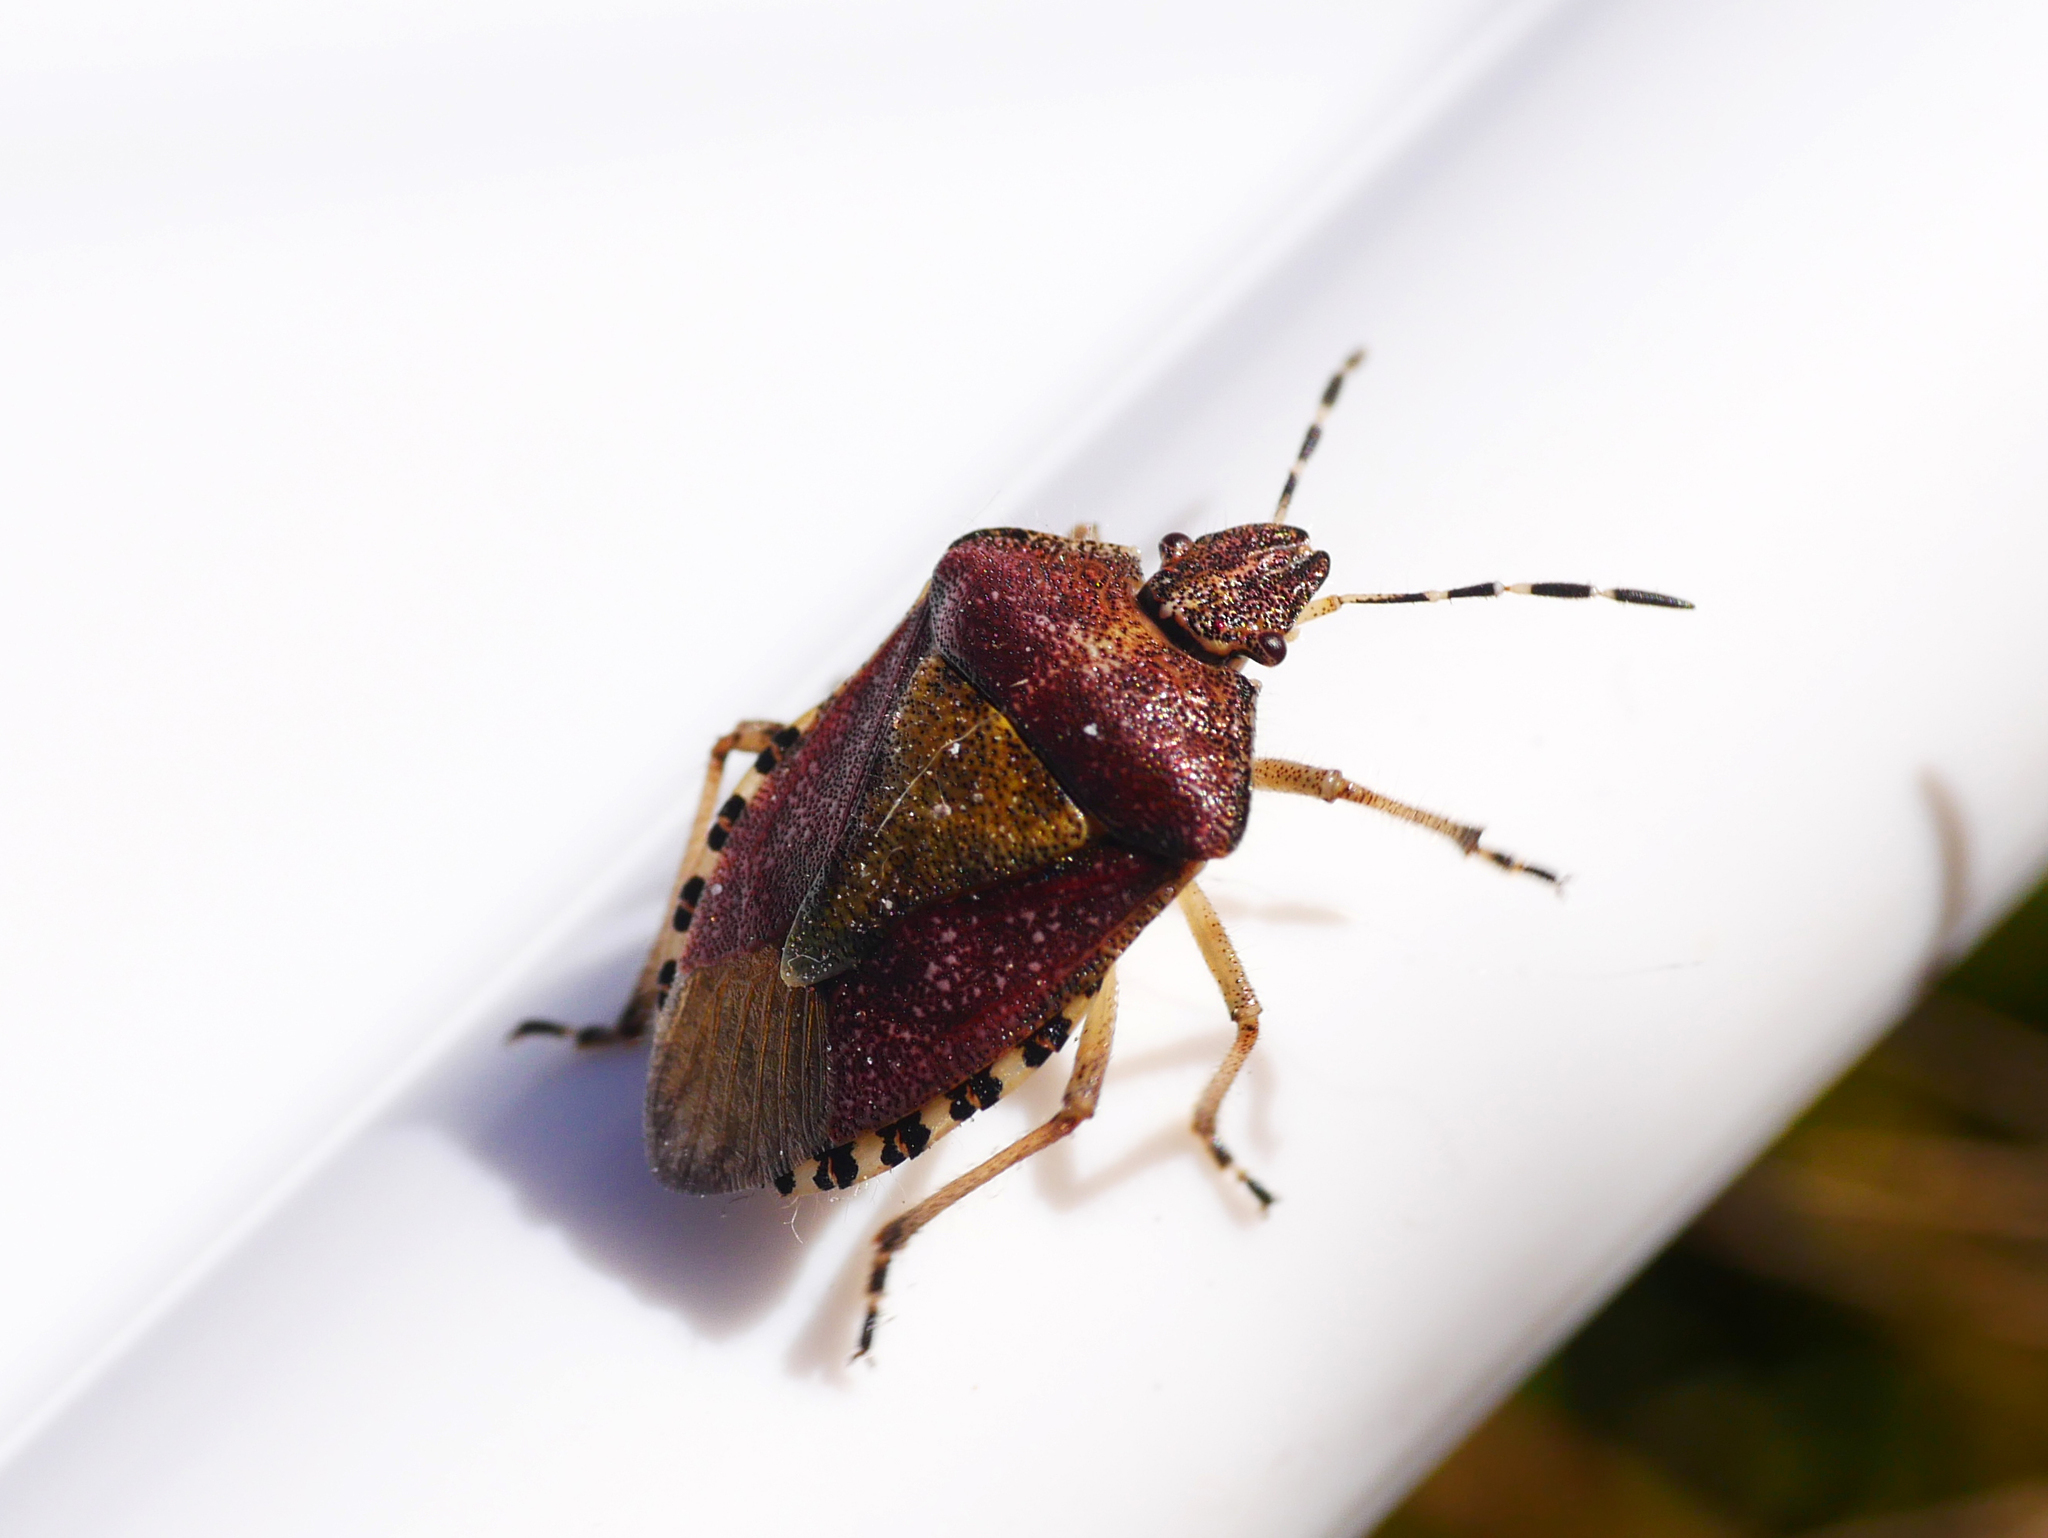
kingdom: Animalia
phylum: Arthropoda
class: Insecta
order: Hemiptera
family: Pentatomidae
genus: Dolycoris
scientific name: Dolycoris baccarum
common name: Sloe bug
